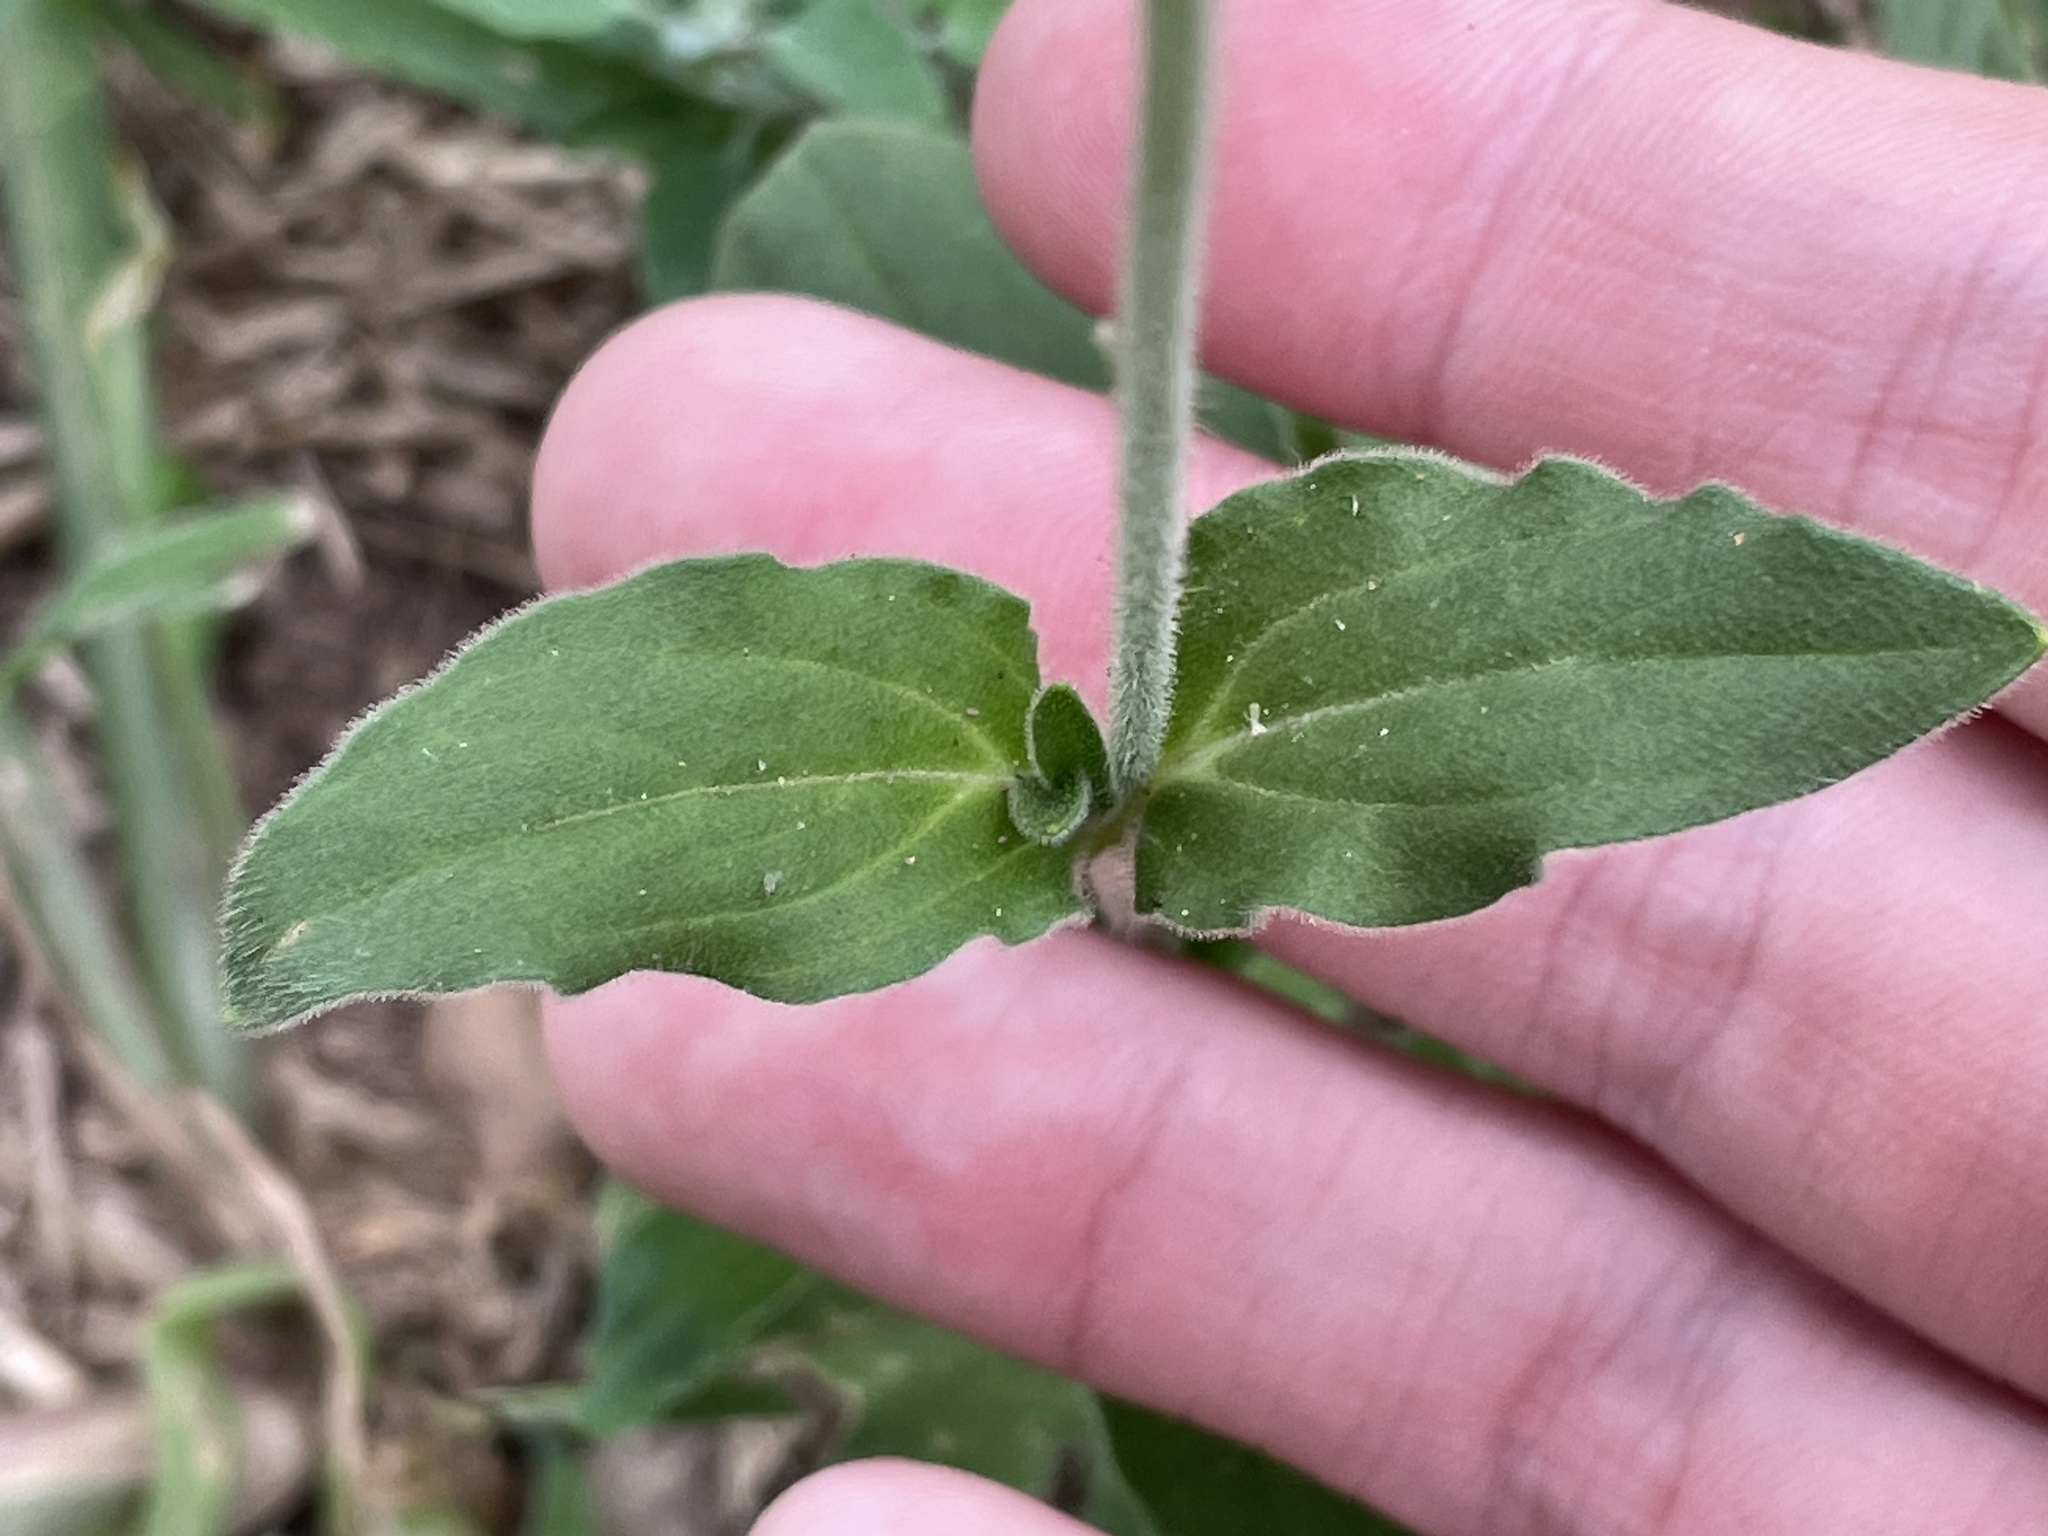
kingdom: Plantae
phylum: Tracheophyta
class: Magnoliopsida
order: Caryophyllales
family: Caryophyllaceae
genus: Silene
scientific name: Silene latifolia
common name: White campion
